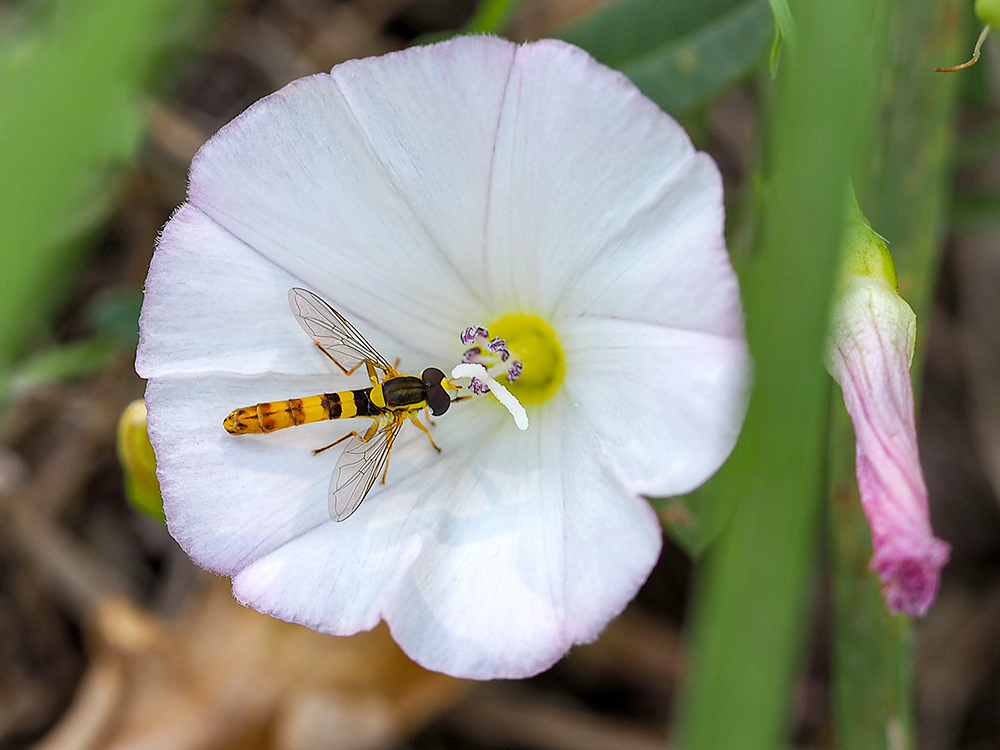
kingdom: Animalia
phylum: Arthropoda
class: Insecta
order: Diptera
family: Syrphidae
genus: Sphaerophoria
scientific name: Sphaerophoria scripta
